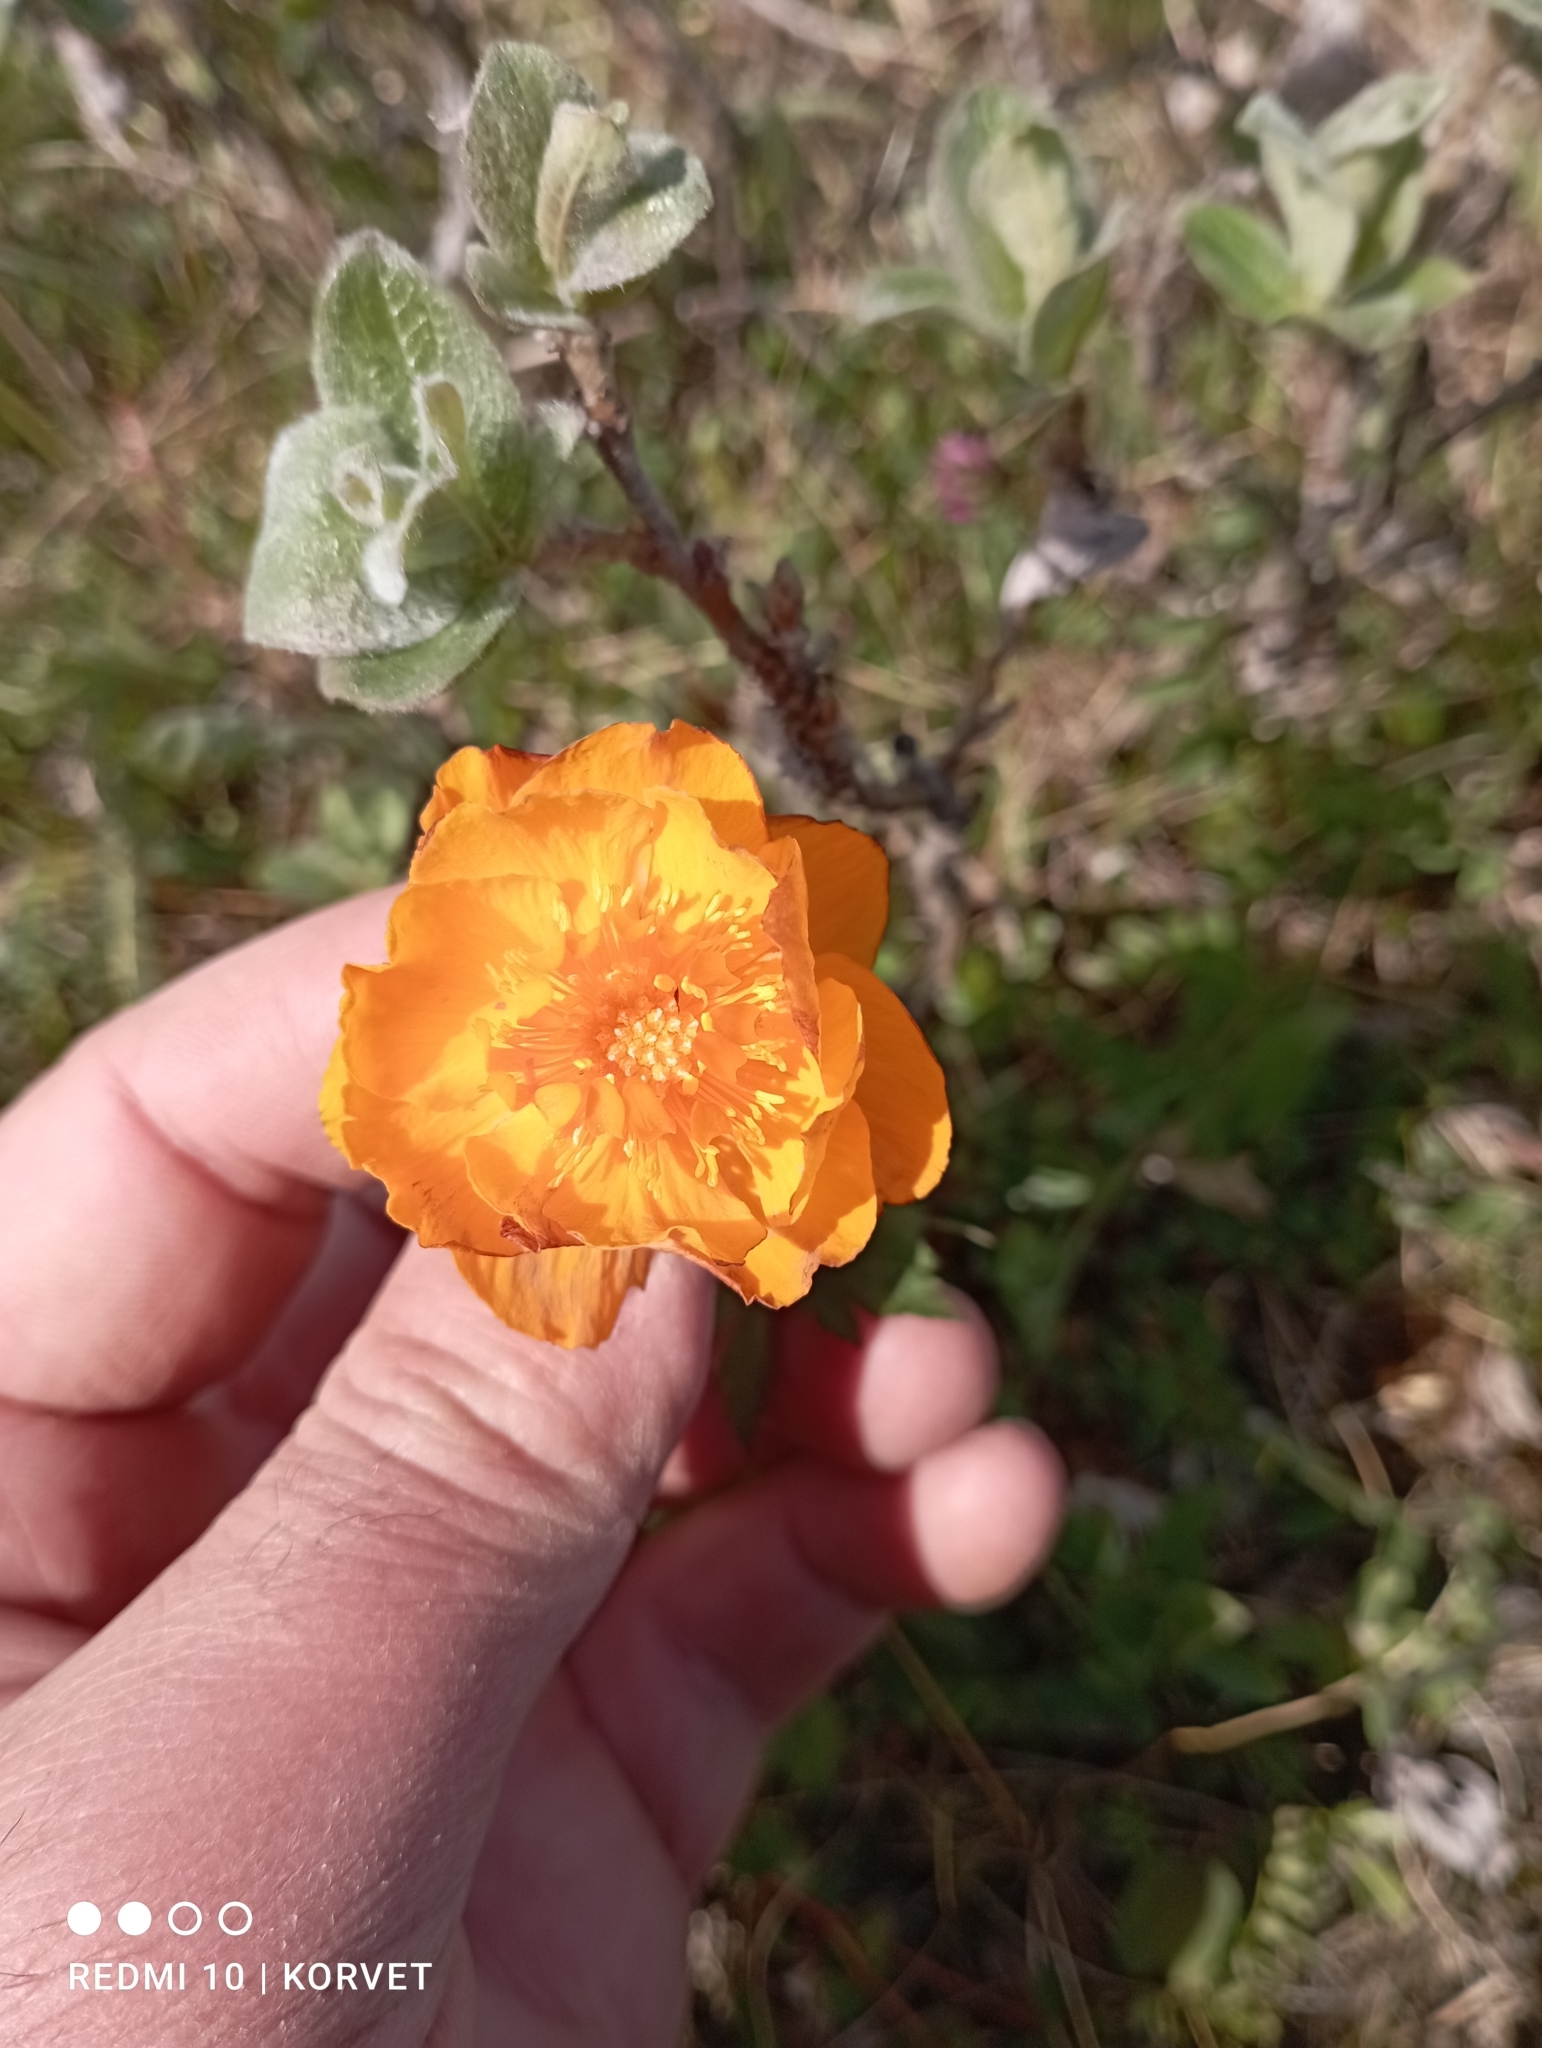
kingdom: Plantae
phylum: Tracheophyta
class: Magnoliopsida
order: Ranunculales
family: Ranunculaceae
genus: Trollius
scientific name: Trollius asiaticus
